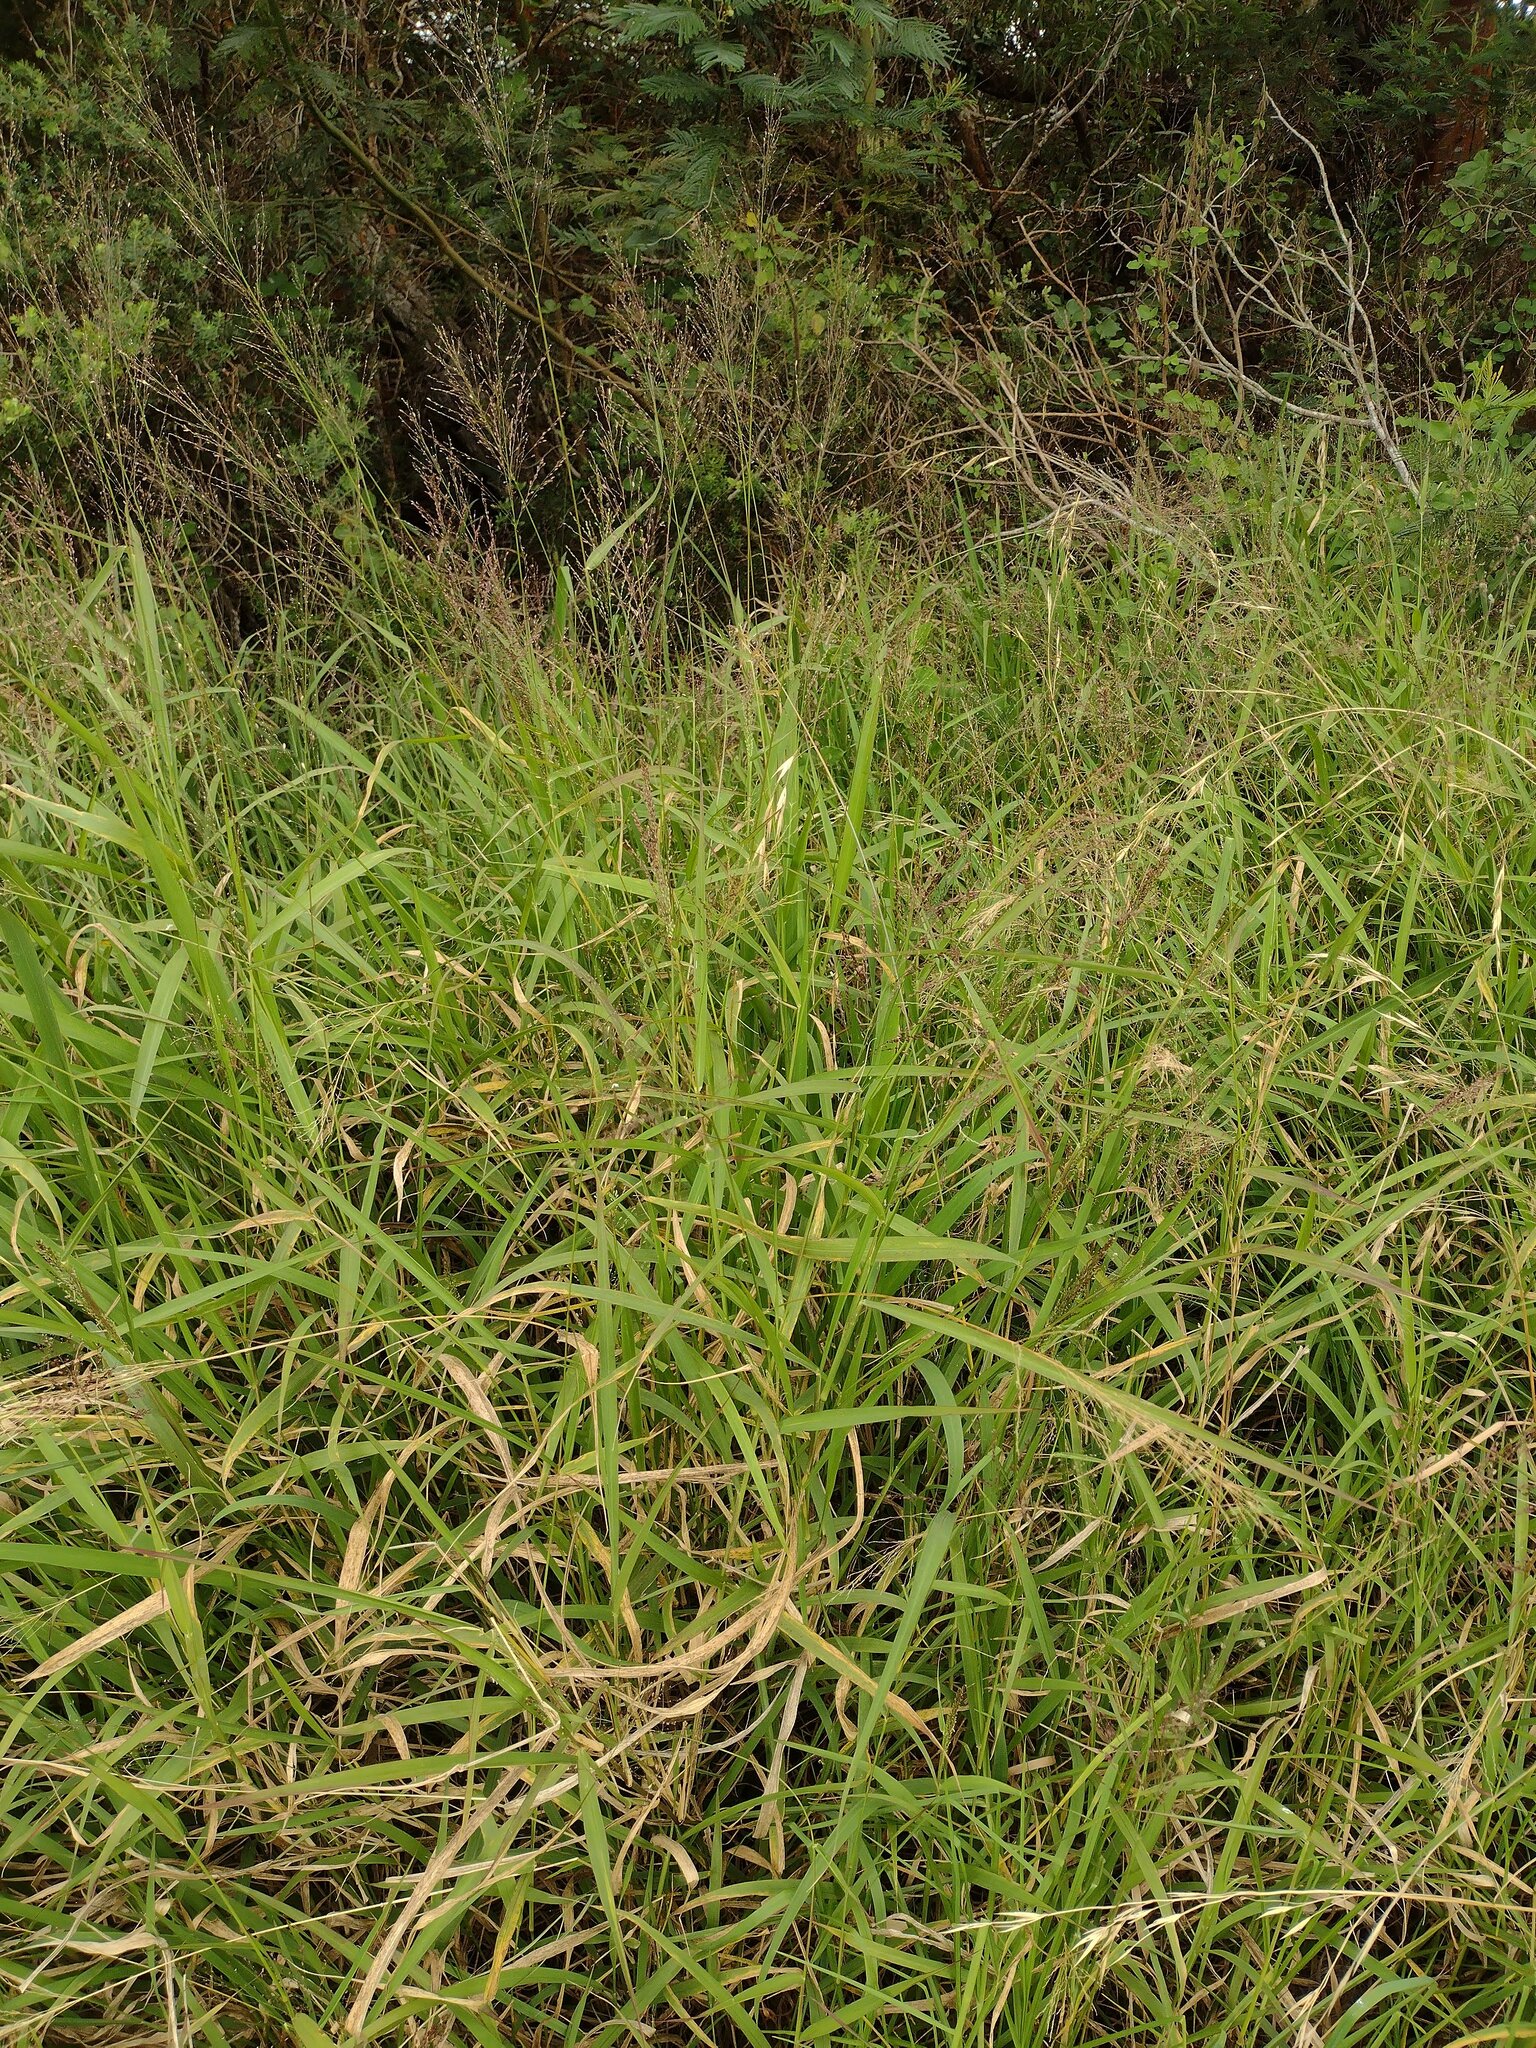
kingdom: Plantae
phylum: Tracheophyta
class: Liliopsida
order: Poales
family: Poaceae
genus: Megathyrsus
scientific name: Megathyrsus maximus
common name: Guineagrass
